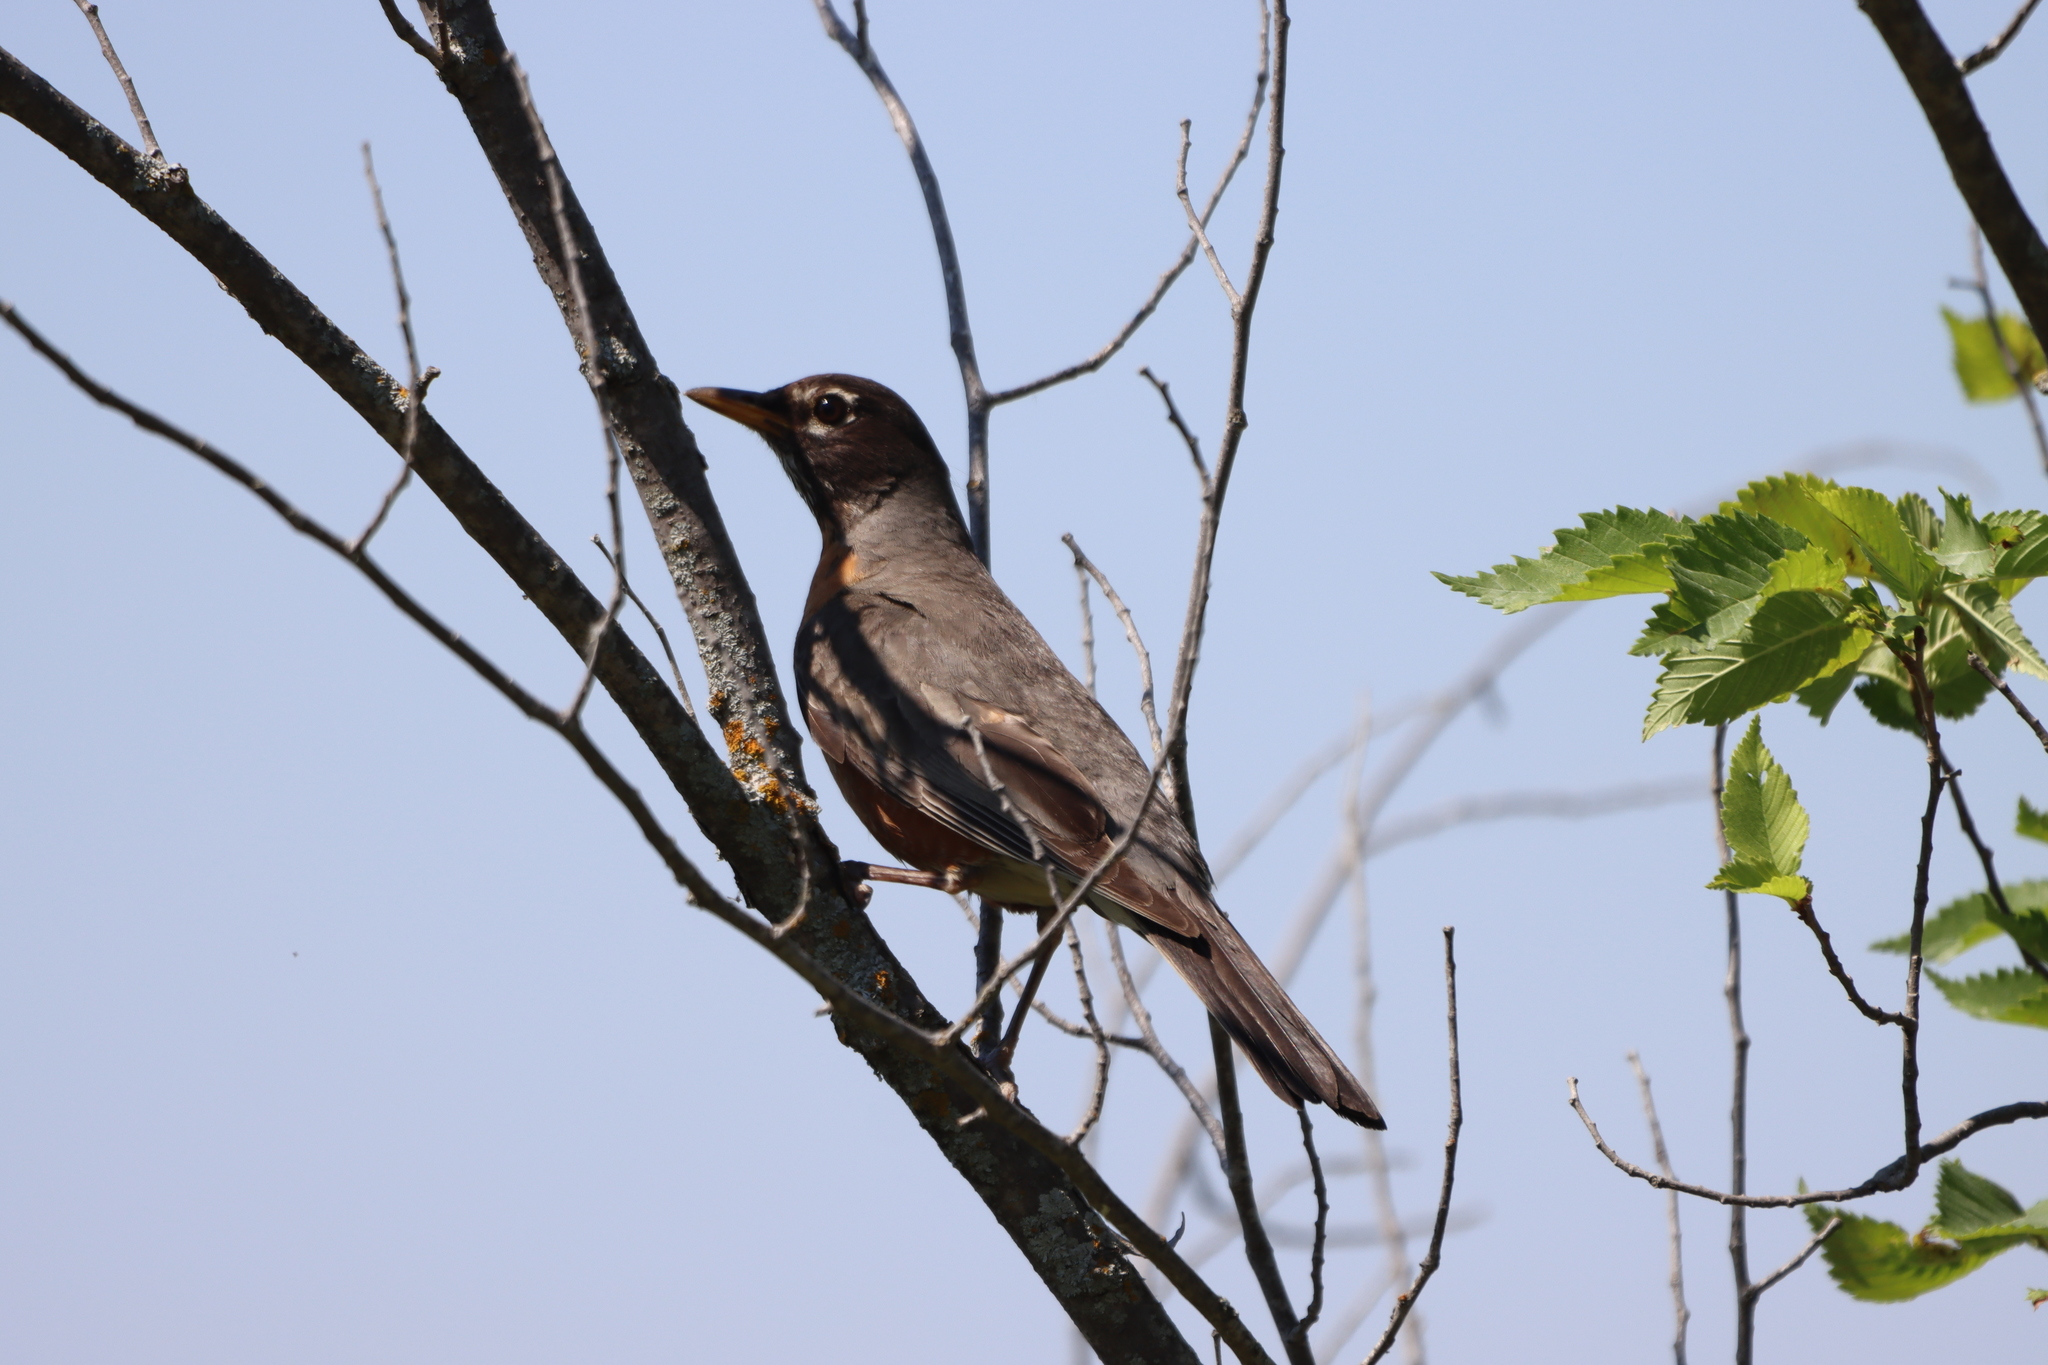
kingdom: Animalia
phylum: Chordata
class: Aves
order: Passeriformes
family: Turdidae
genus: Turdus
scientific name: Turdus migratorius
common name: American robin
